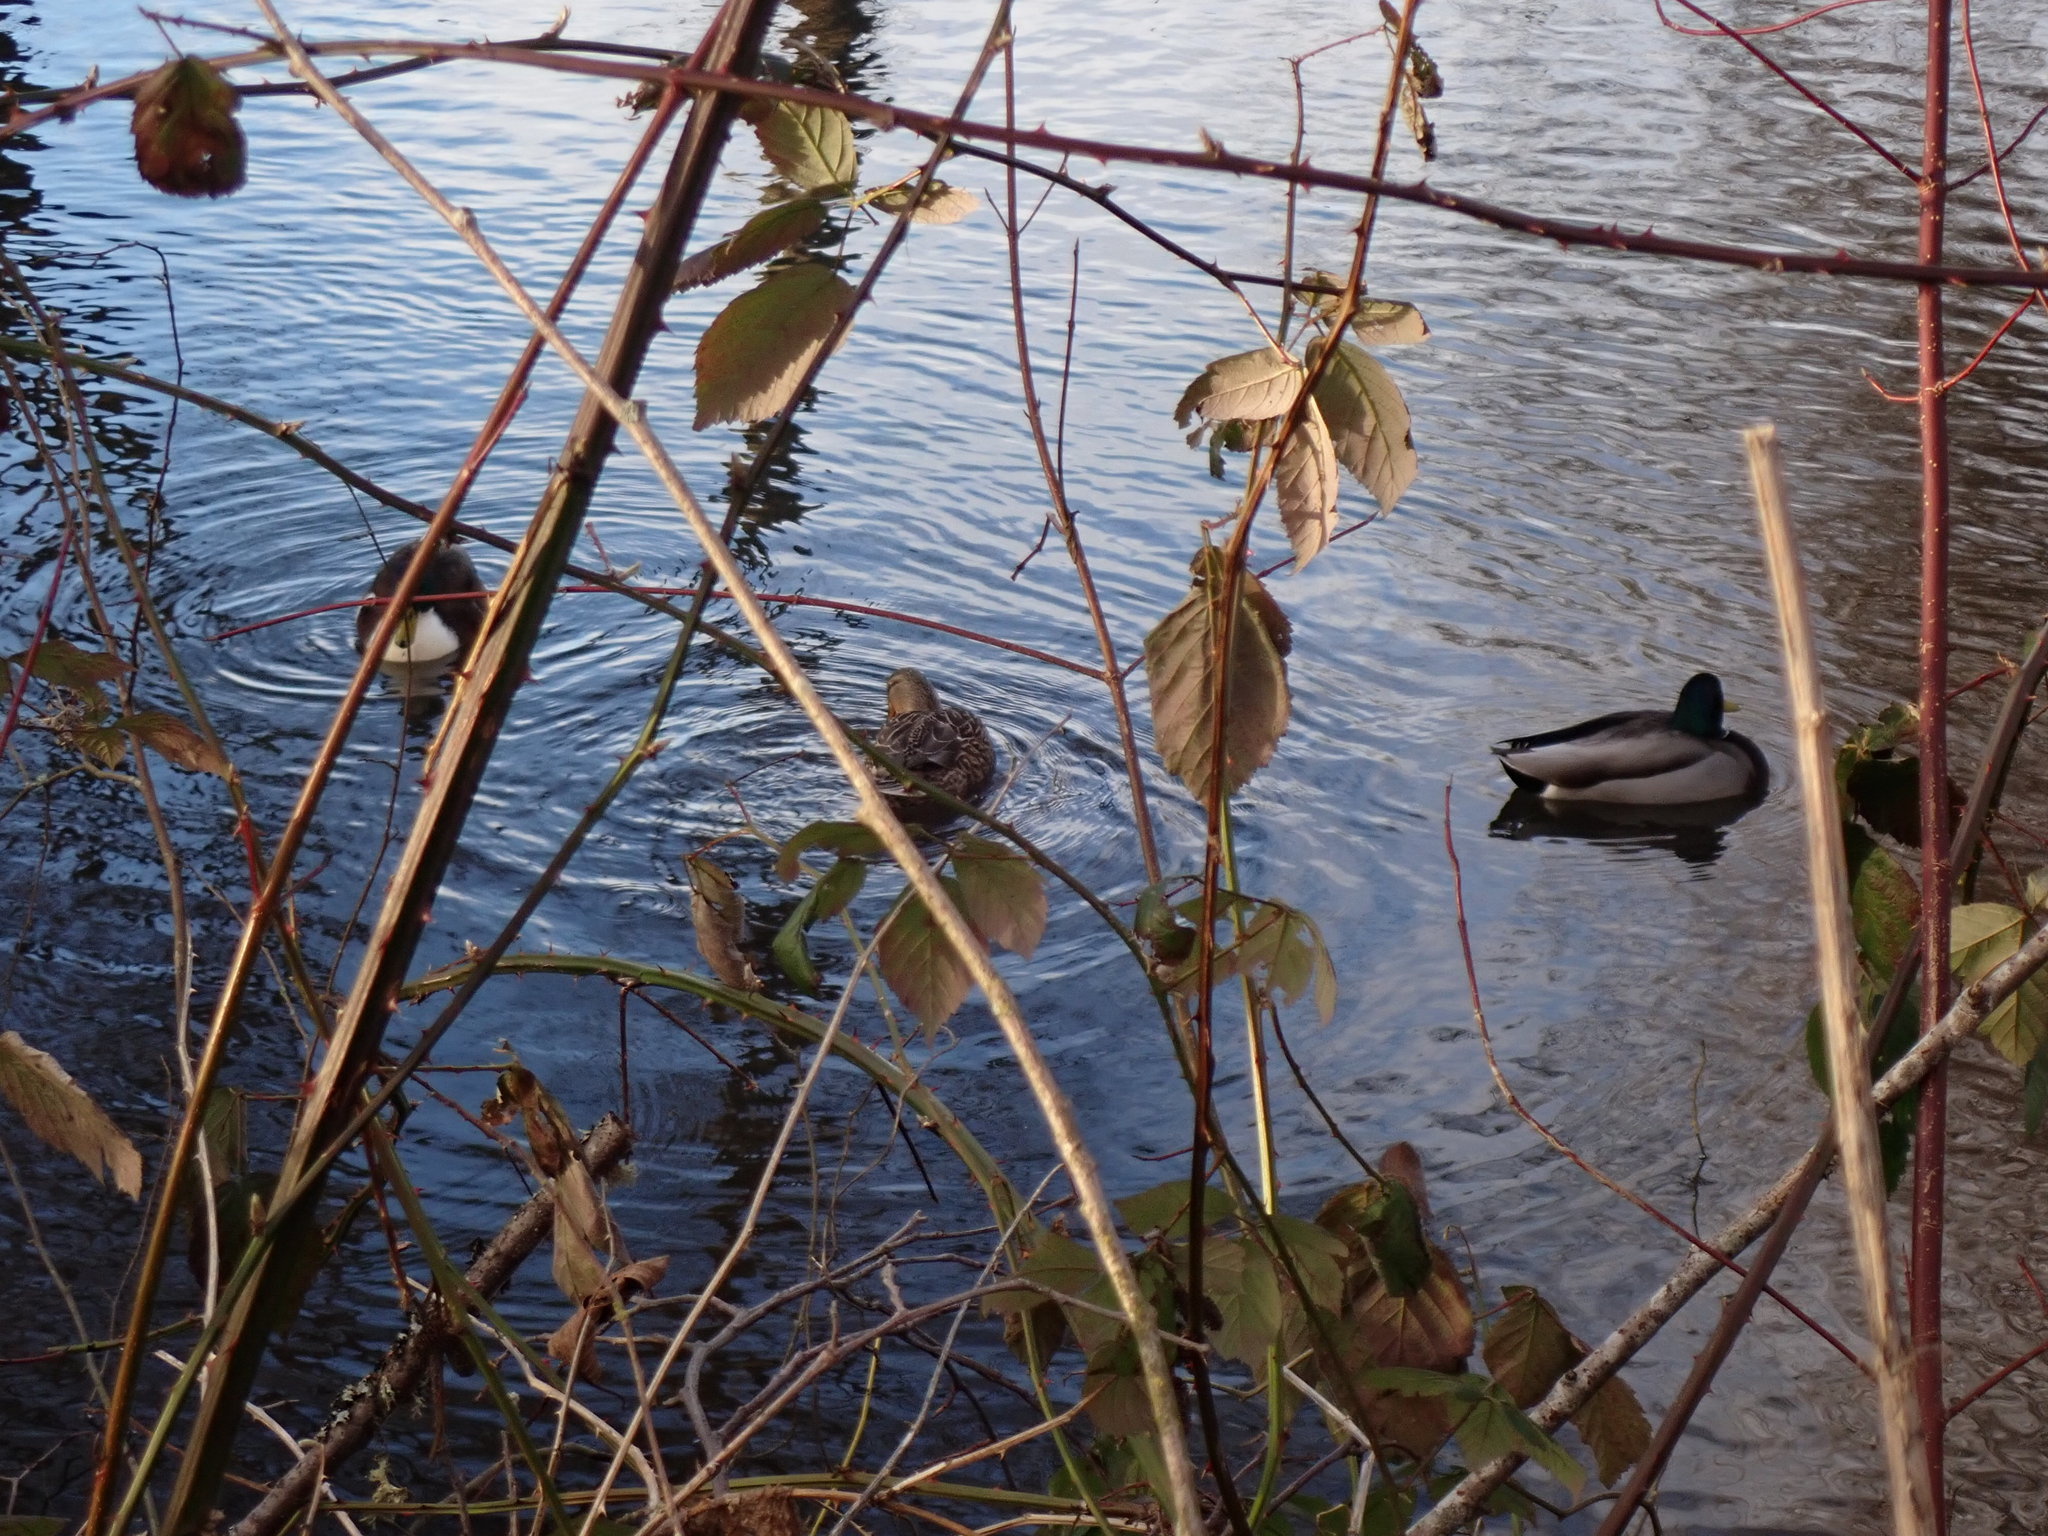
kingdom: Animalia
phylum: Chordata
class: Aves
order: Anseriformes
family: Anatidae
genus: Anas
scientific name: Anas platyrhynchos
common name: Mallard
